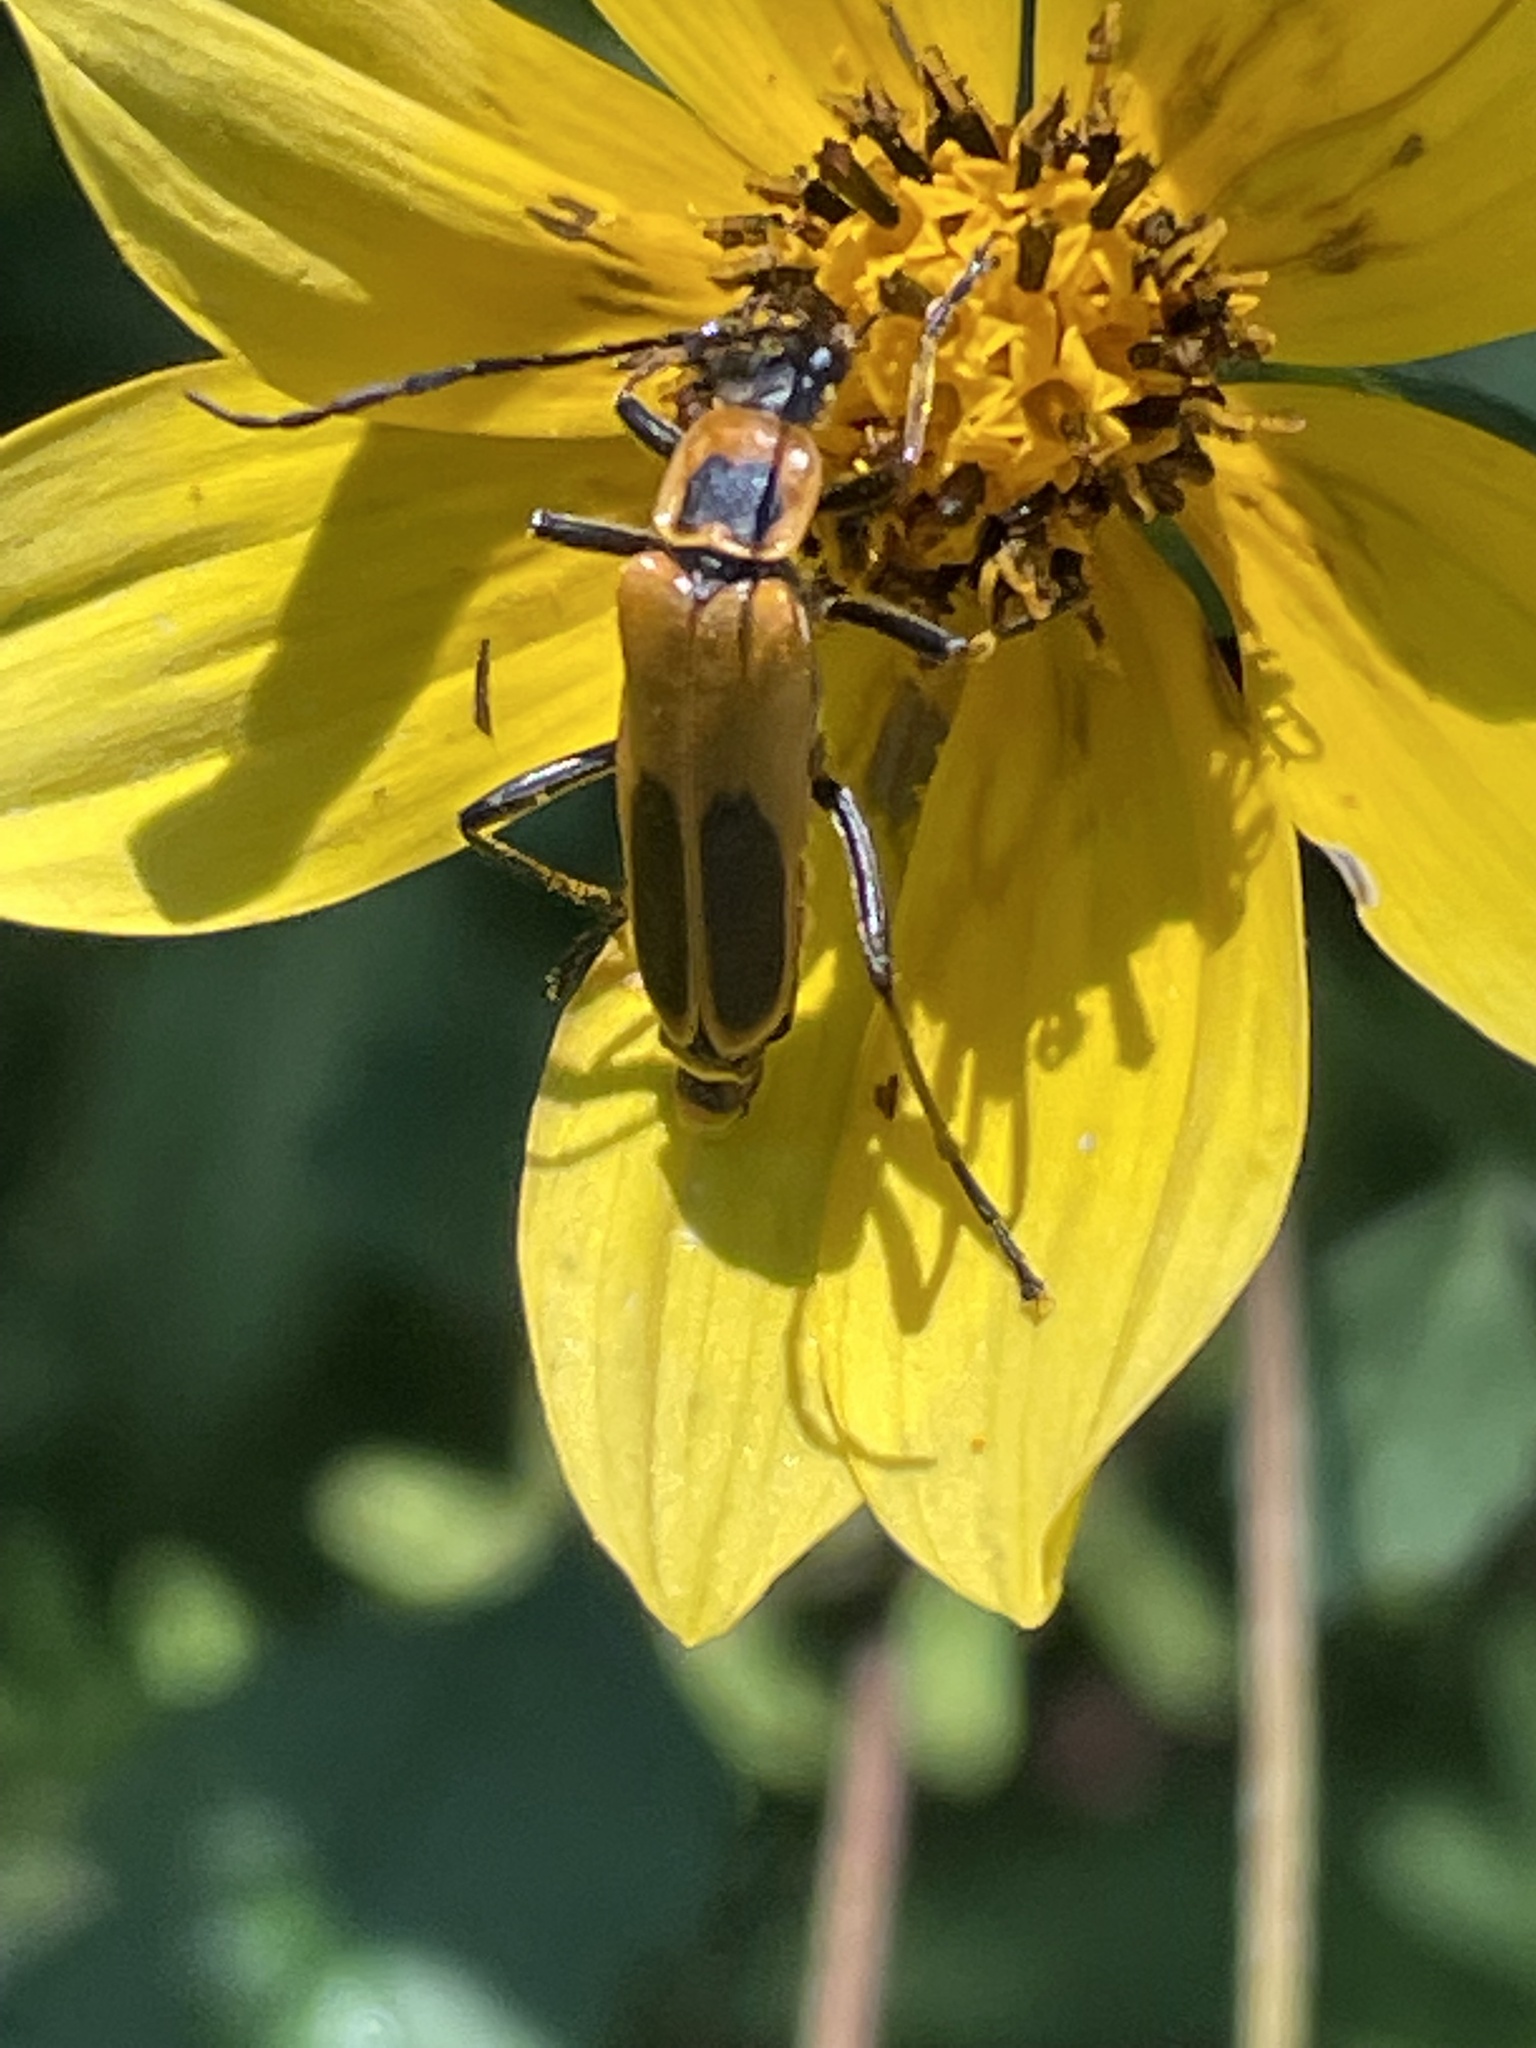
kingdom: Animalia
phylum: Arthropoda
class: Insecta
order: Coleoptera
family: Cantharidae
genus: Chauliognathus
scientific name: Chauliognathus pensylvanicus
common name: Goldenrod soldier beetle
